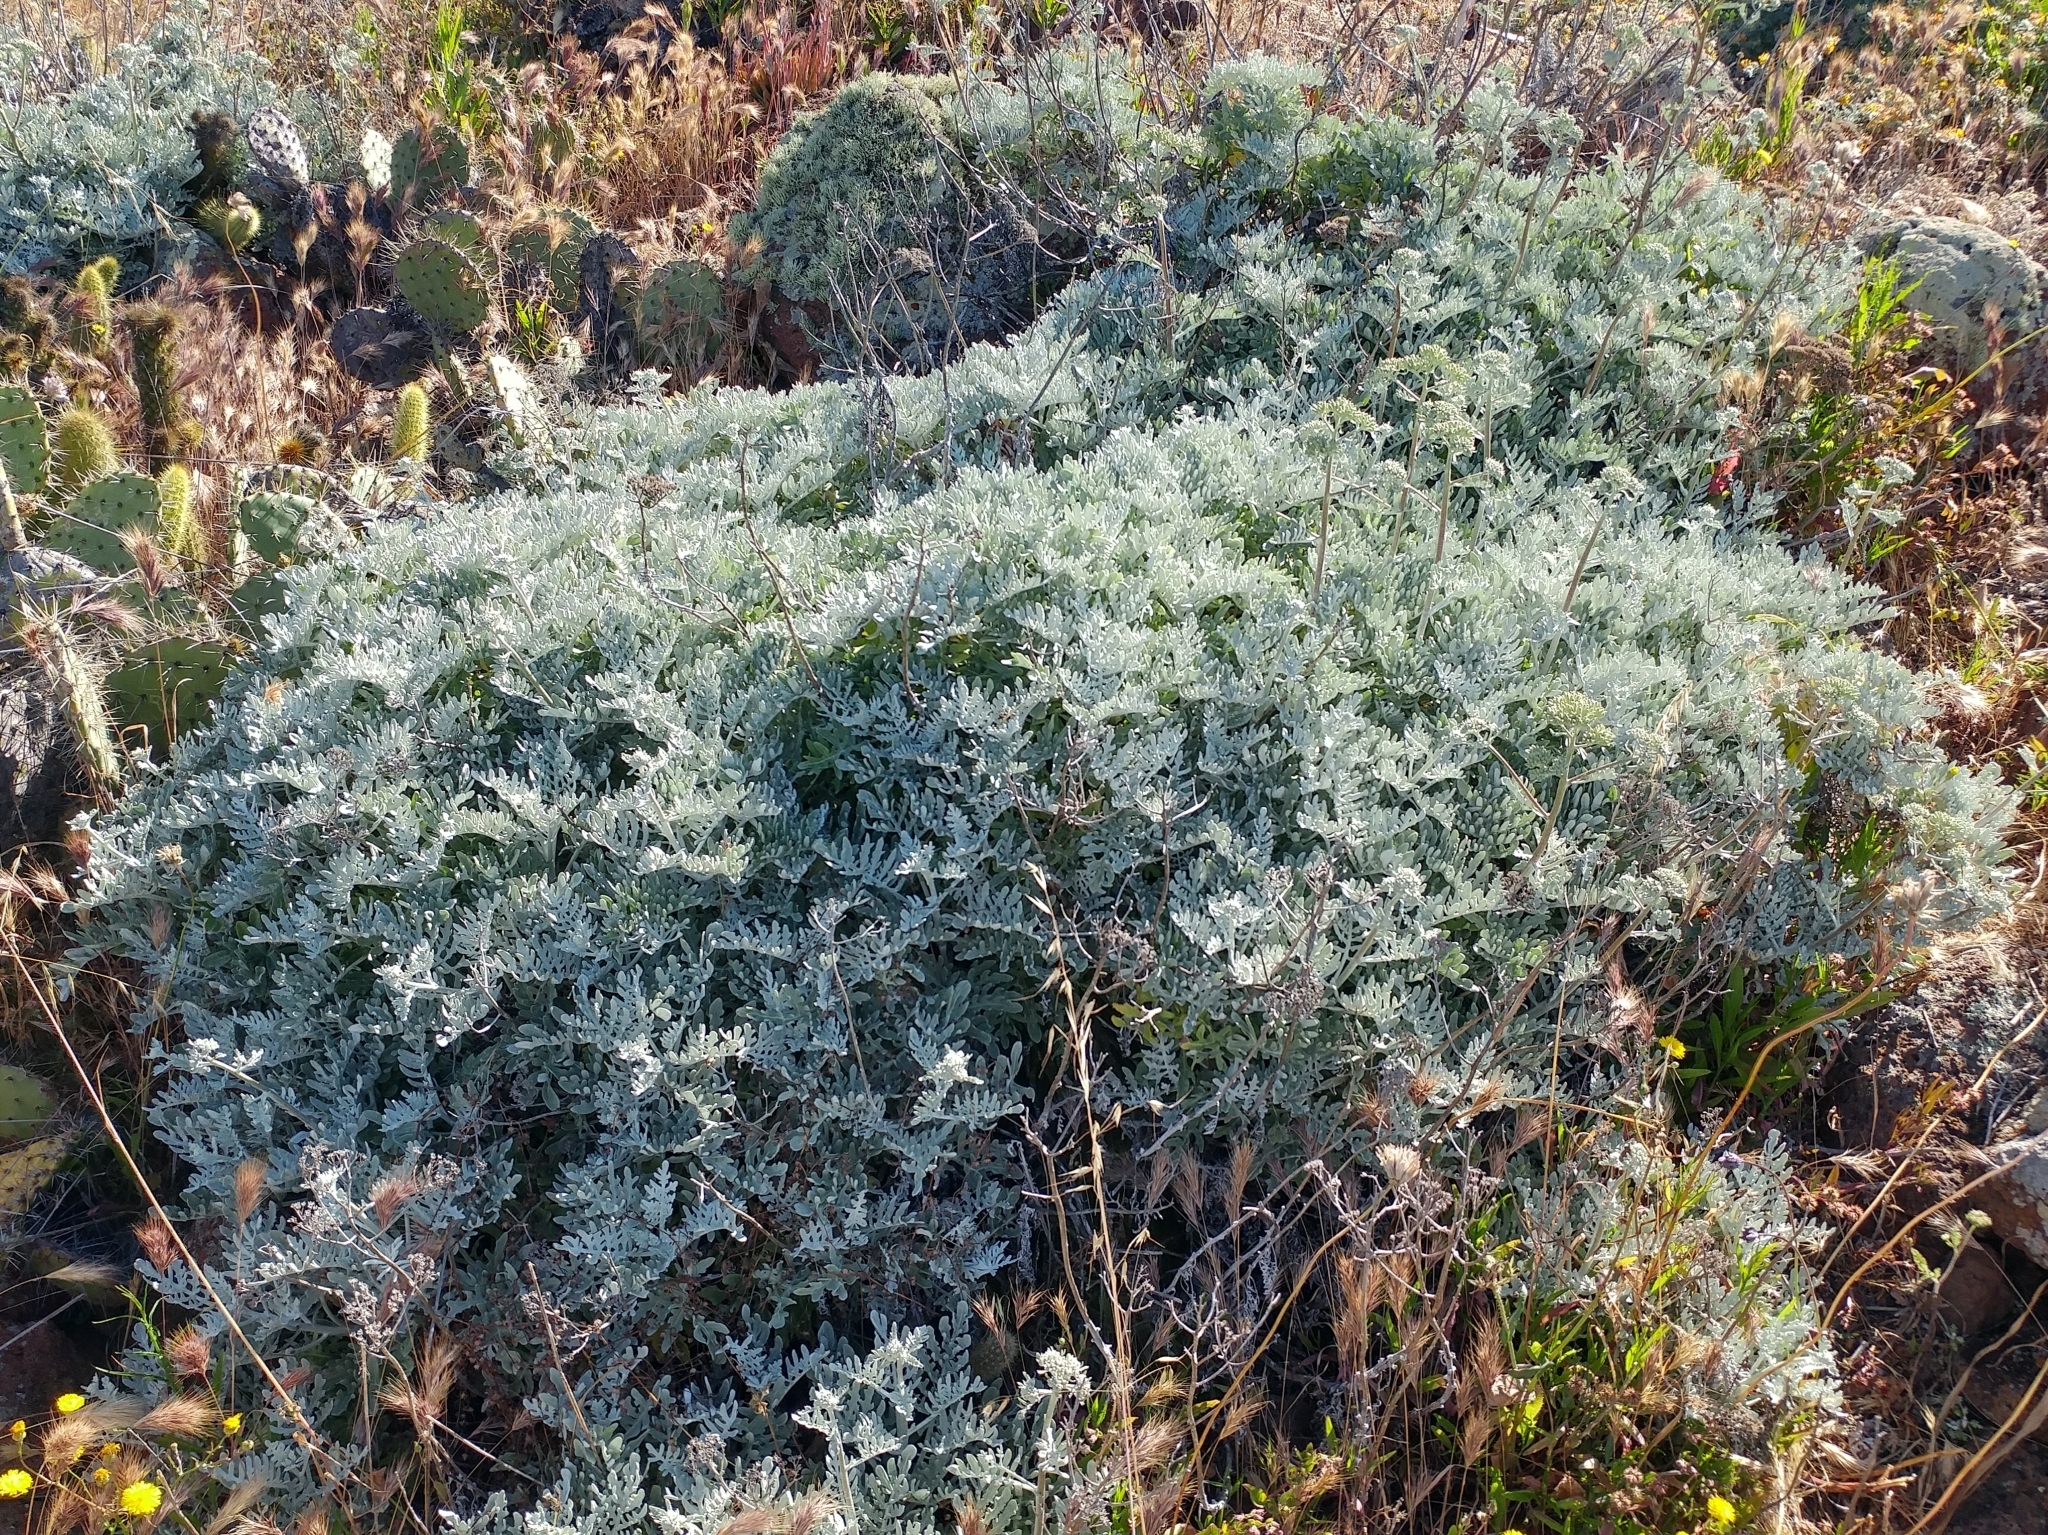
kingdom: Plantae
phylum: Tracheophyta
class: Magnoliopsida
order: Asterales
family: Asteraceae
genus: Constancea
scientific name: Constancea nevinii
